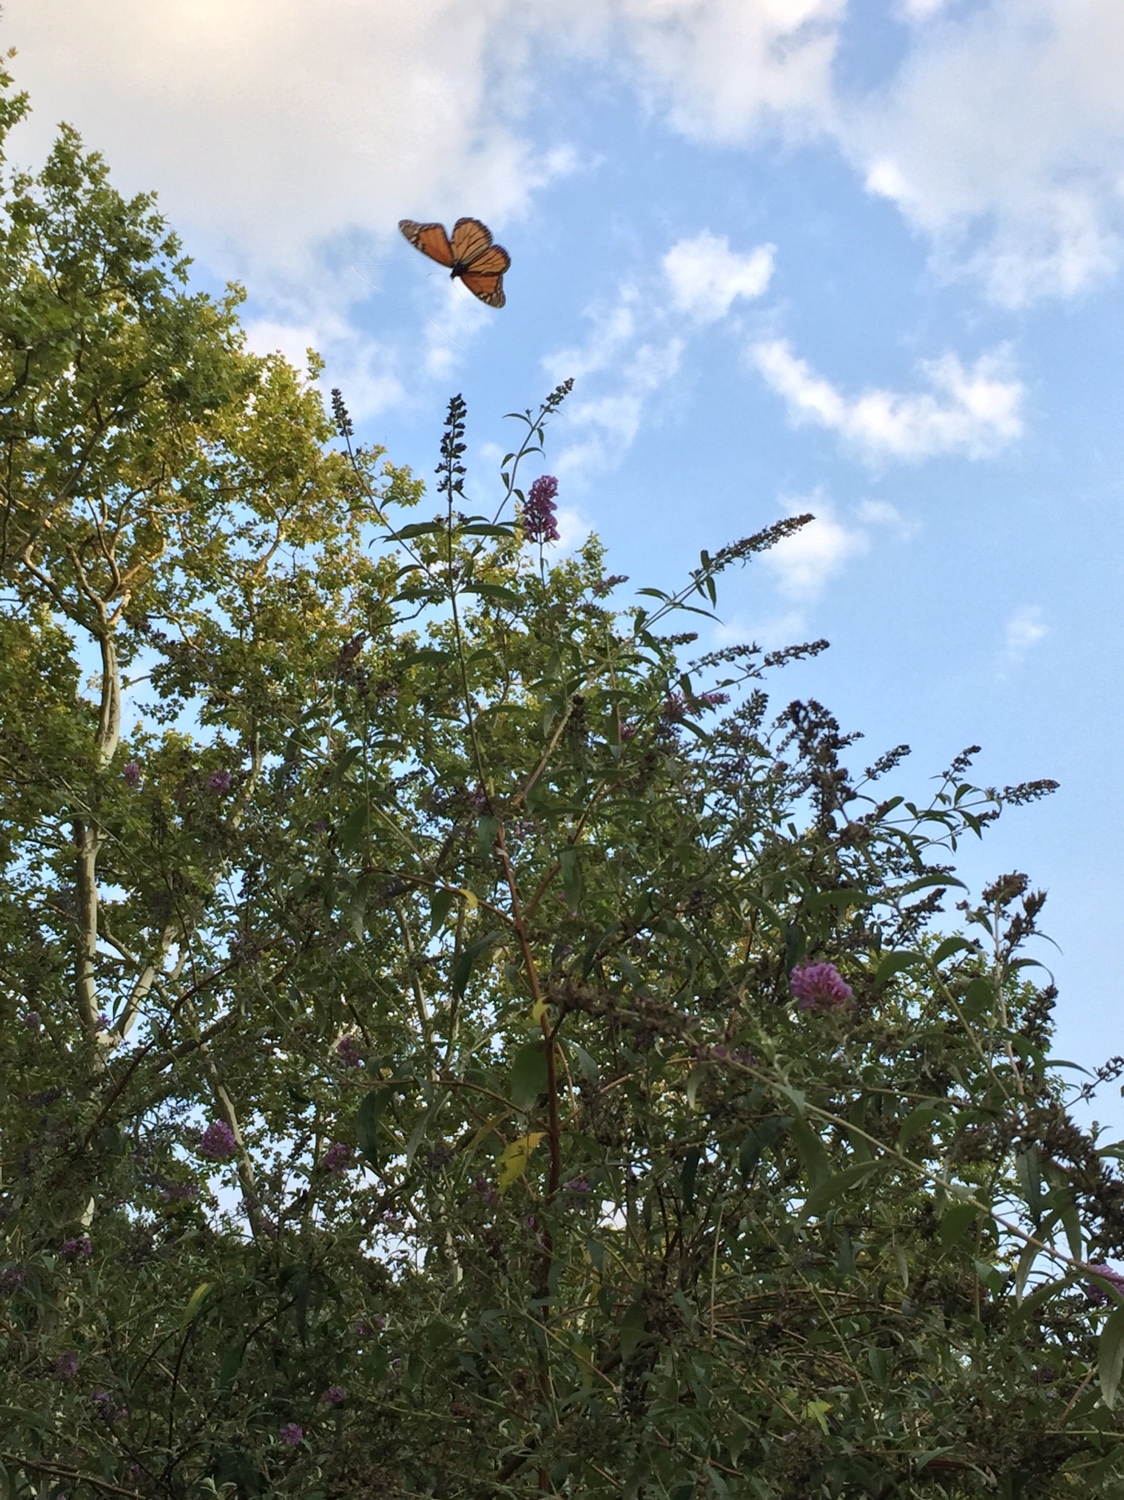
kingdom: Animalia
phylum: Arthropoda
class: Insecta
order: Lepidoptera
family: Nymphalidae
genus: Danaus
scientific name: Danaus plexippus
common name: Monarch
